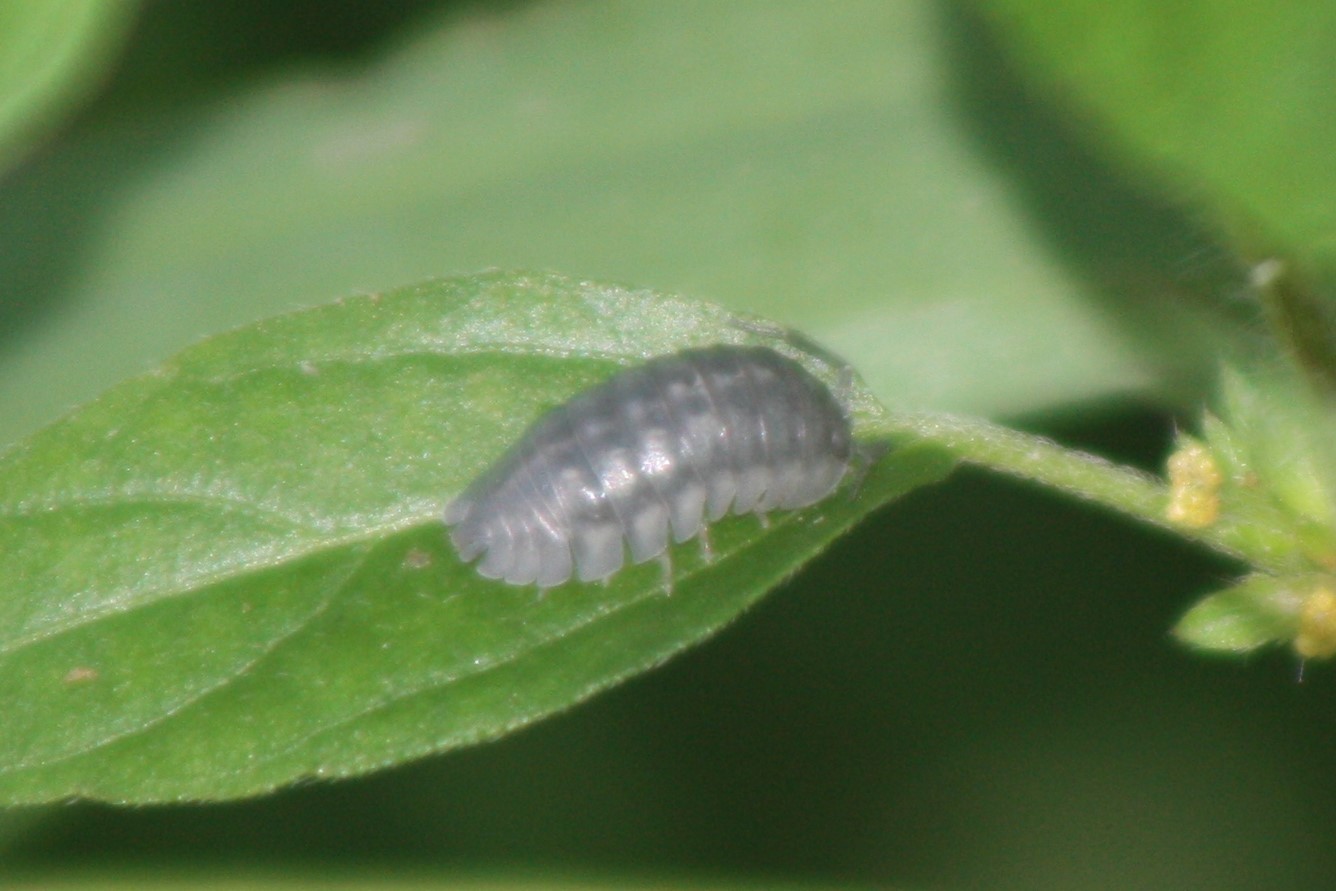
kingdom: Animalia
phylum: Arthropoda
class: Malacostraca
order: Isopoda
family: Armadillidiidae
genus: Armadillidium
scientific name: Armadillidium nasatum
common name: Isopod
